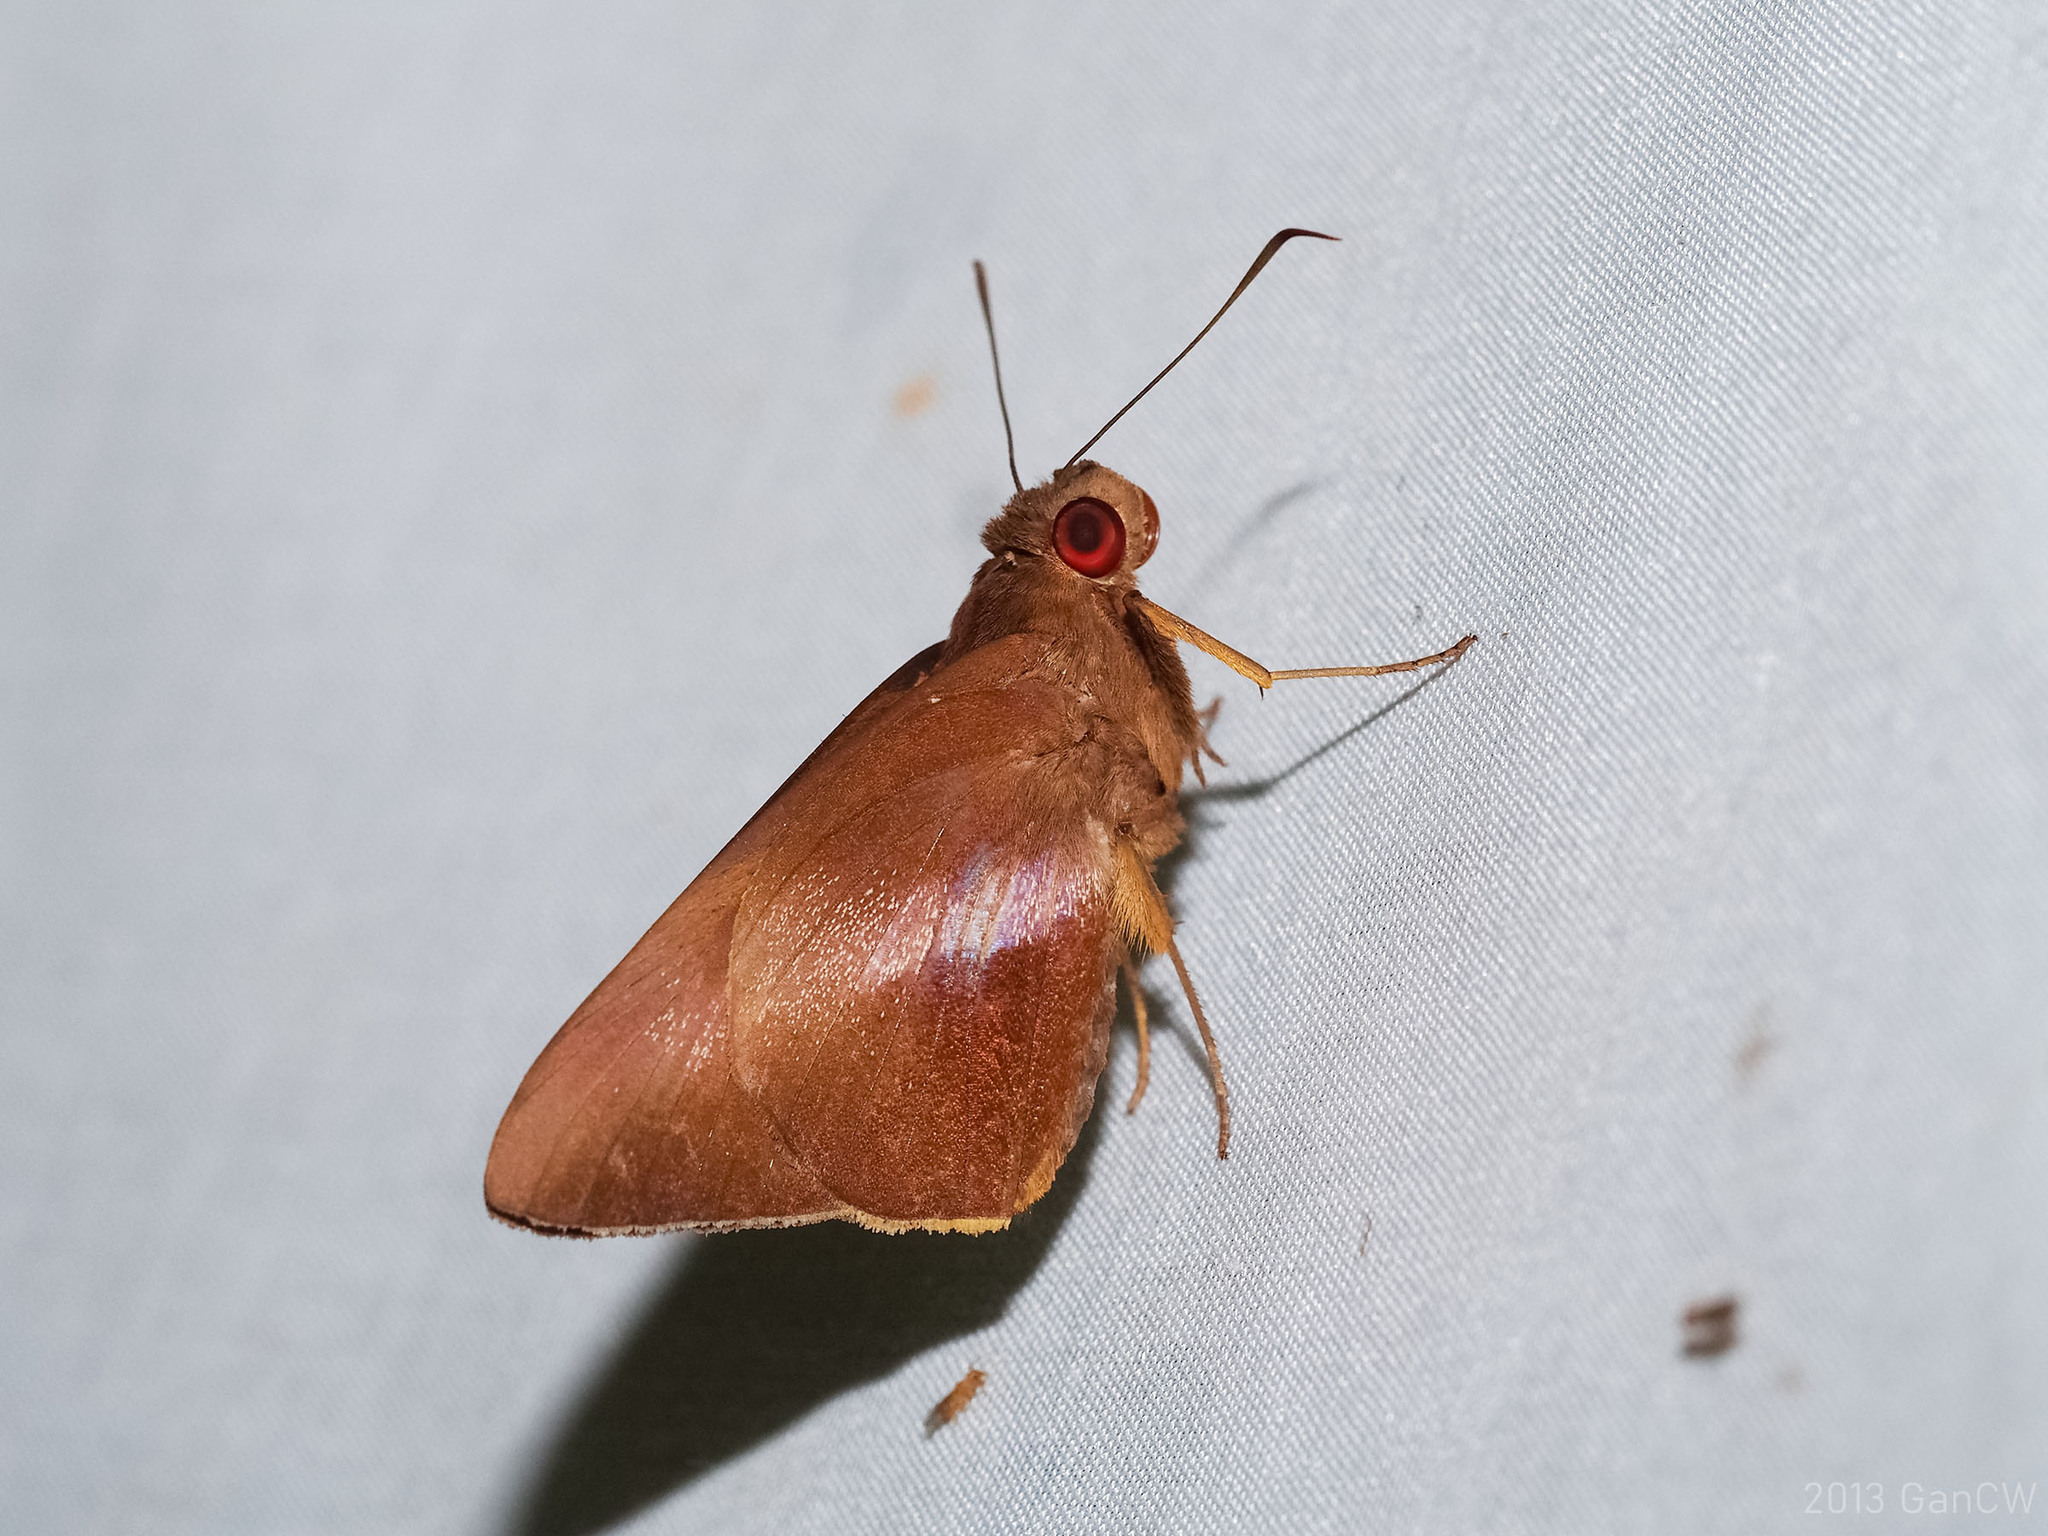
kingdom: Animalia
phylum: Arthropoda
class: Insecta
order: Lepidoptera
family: Hesperiidae
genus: Gangara
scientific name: Gangara lebadea
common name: Banded redeye
